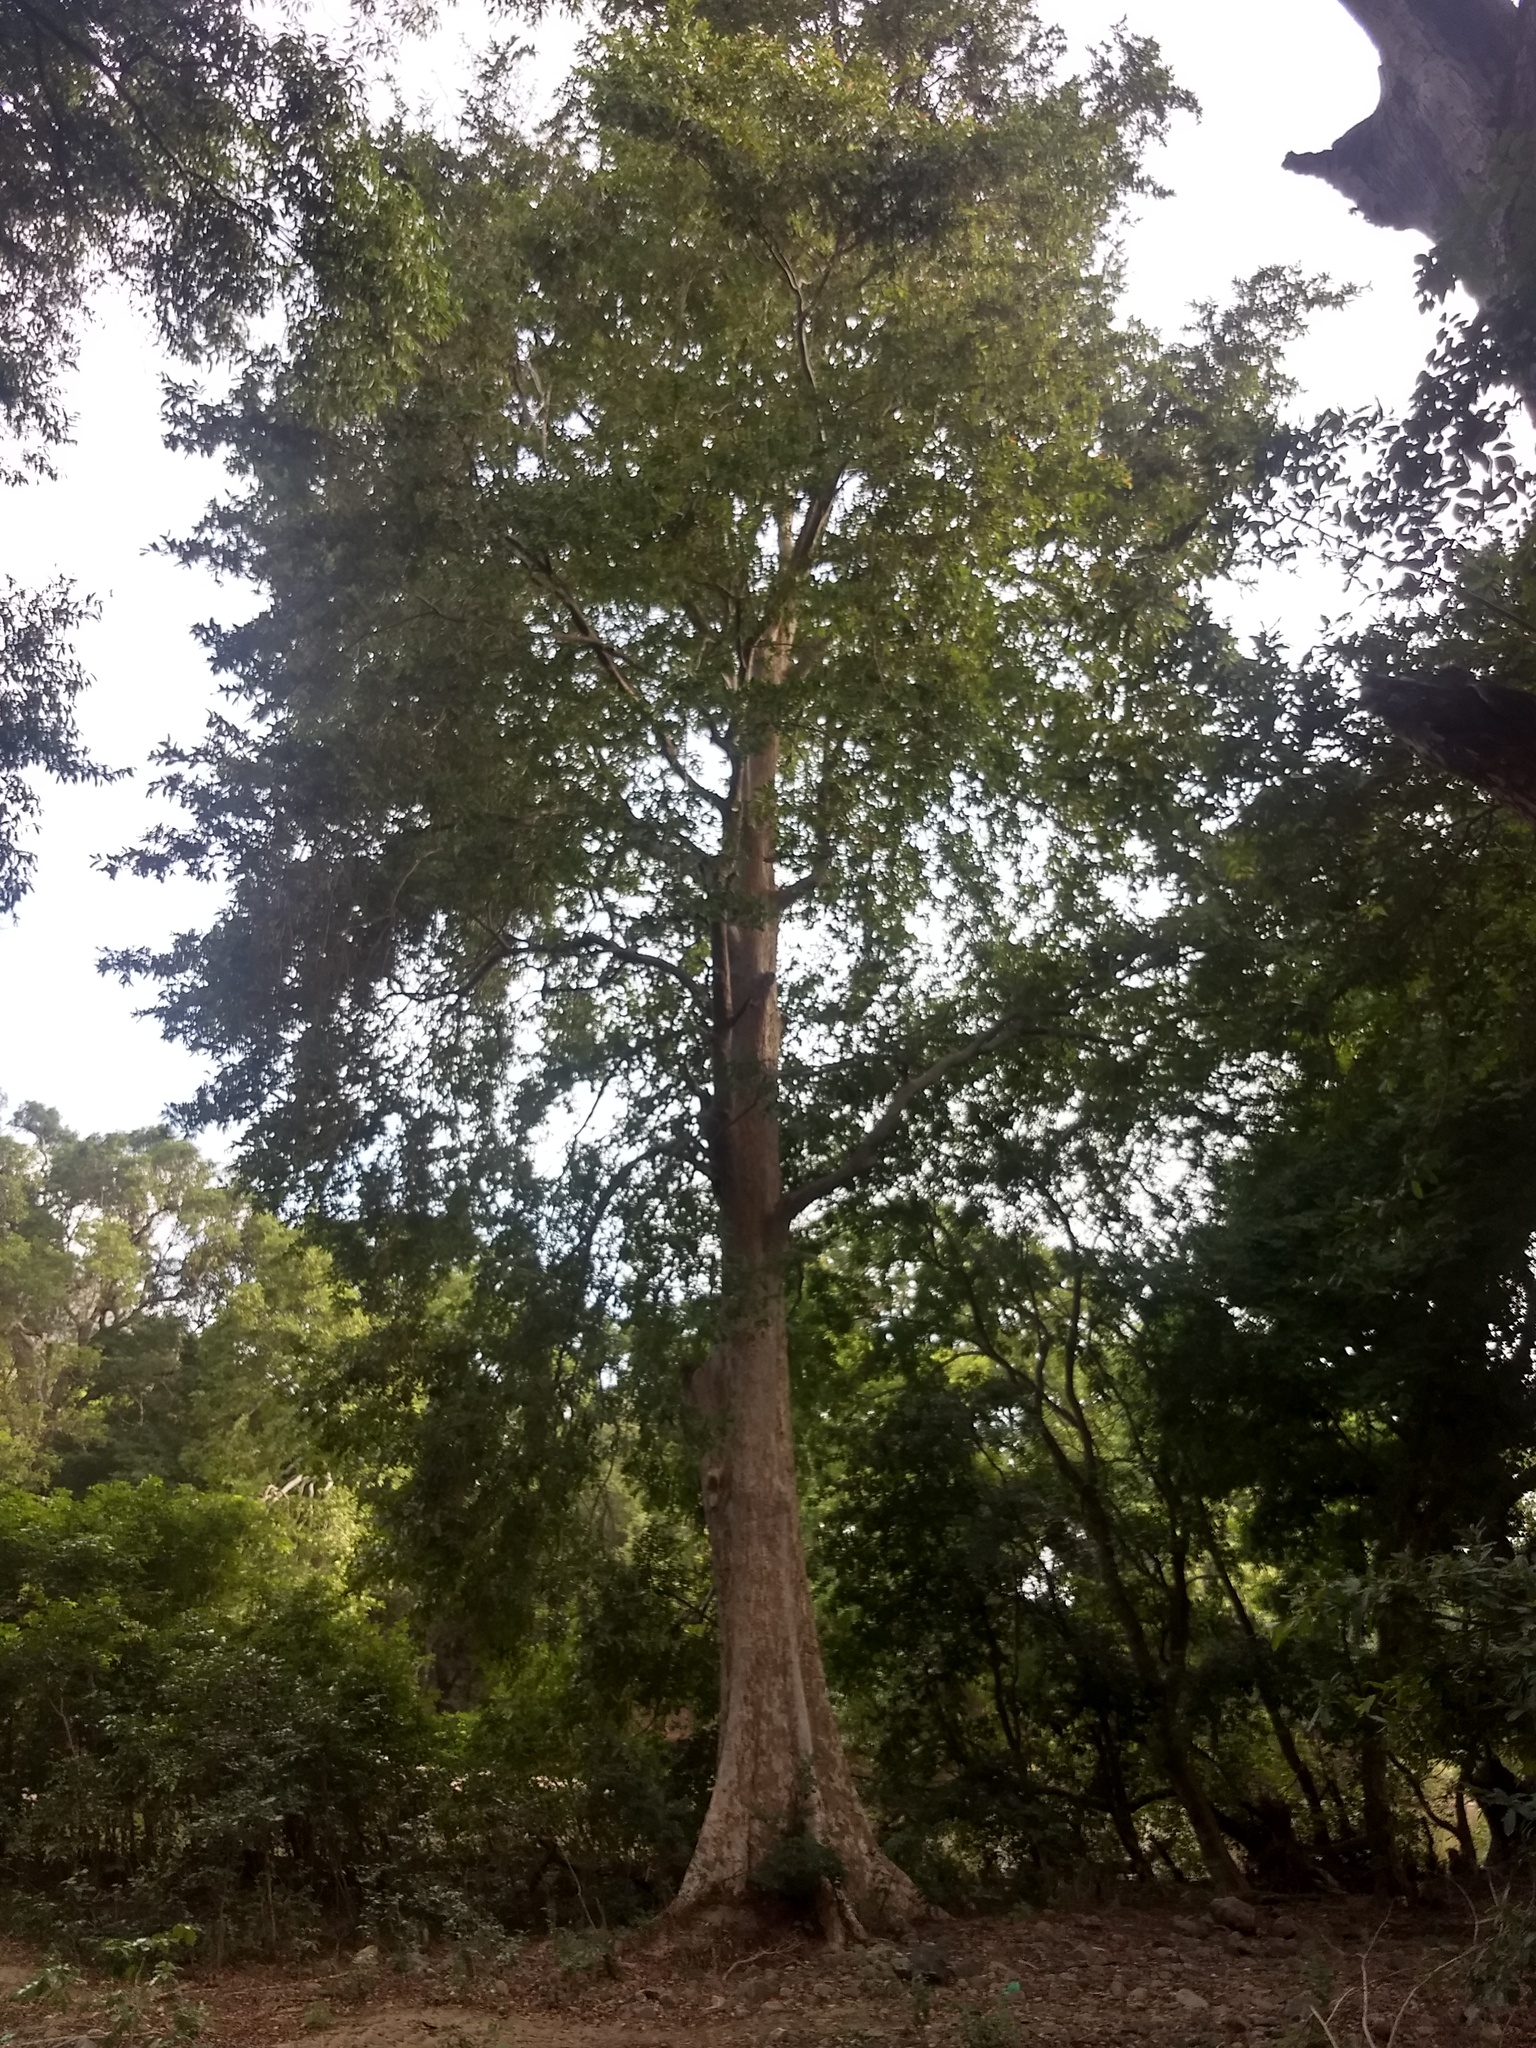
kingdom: Plantae
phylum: Tracheophyta
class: Magnoliopsida
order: Myrtales
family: Combretaceae
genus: Terminalia
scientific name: Terminalia arjuna
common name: Arjun
